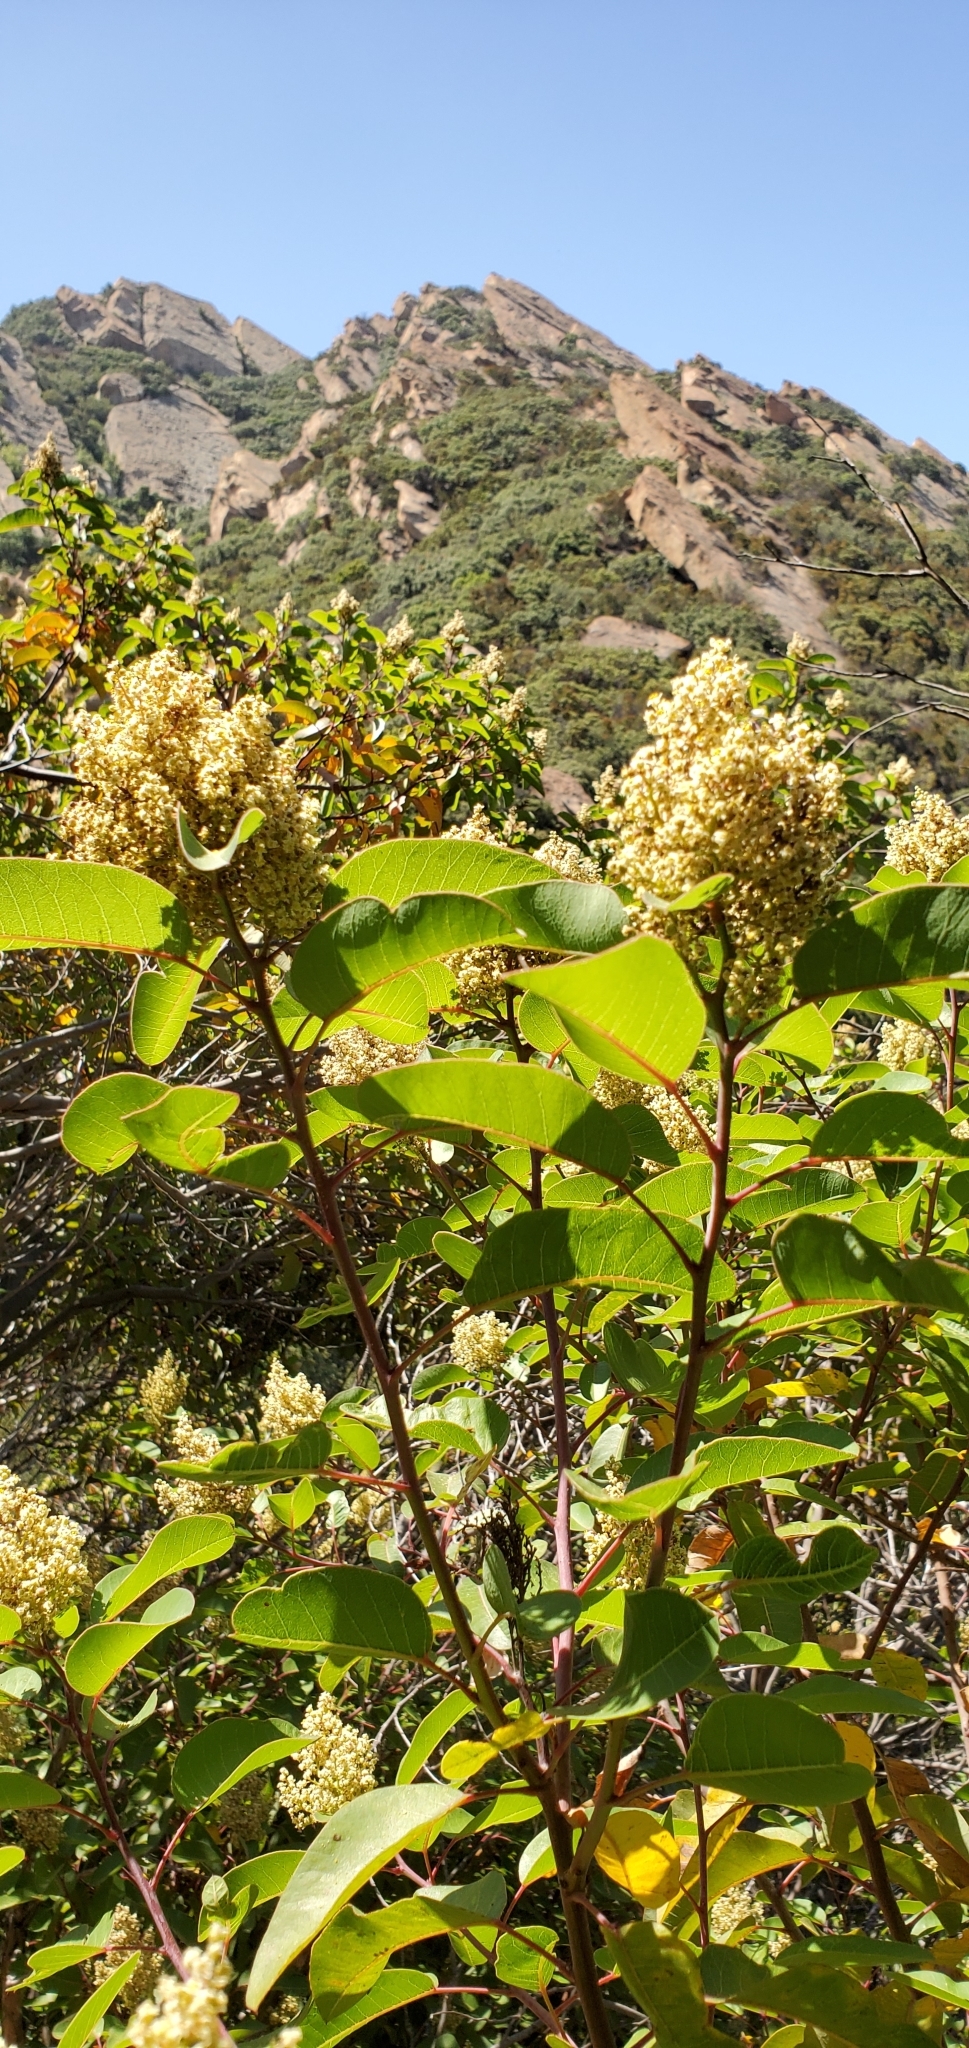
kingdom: Plantae
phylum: Tracheophyta
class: Magnoliopsida
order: Sapindales
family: Anacardiaceae
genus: Malosma
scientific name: Malosma laurina
